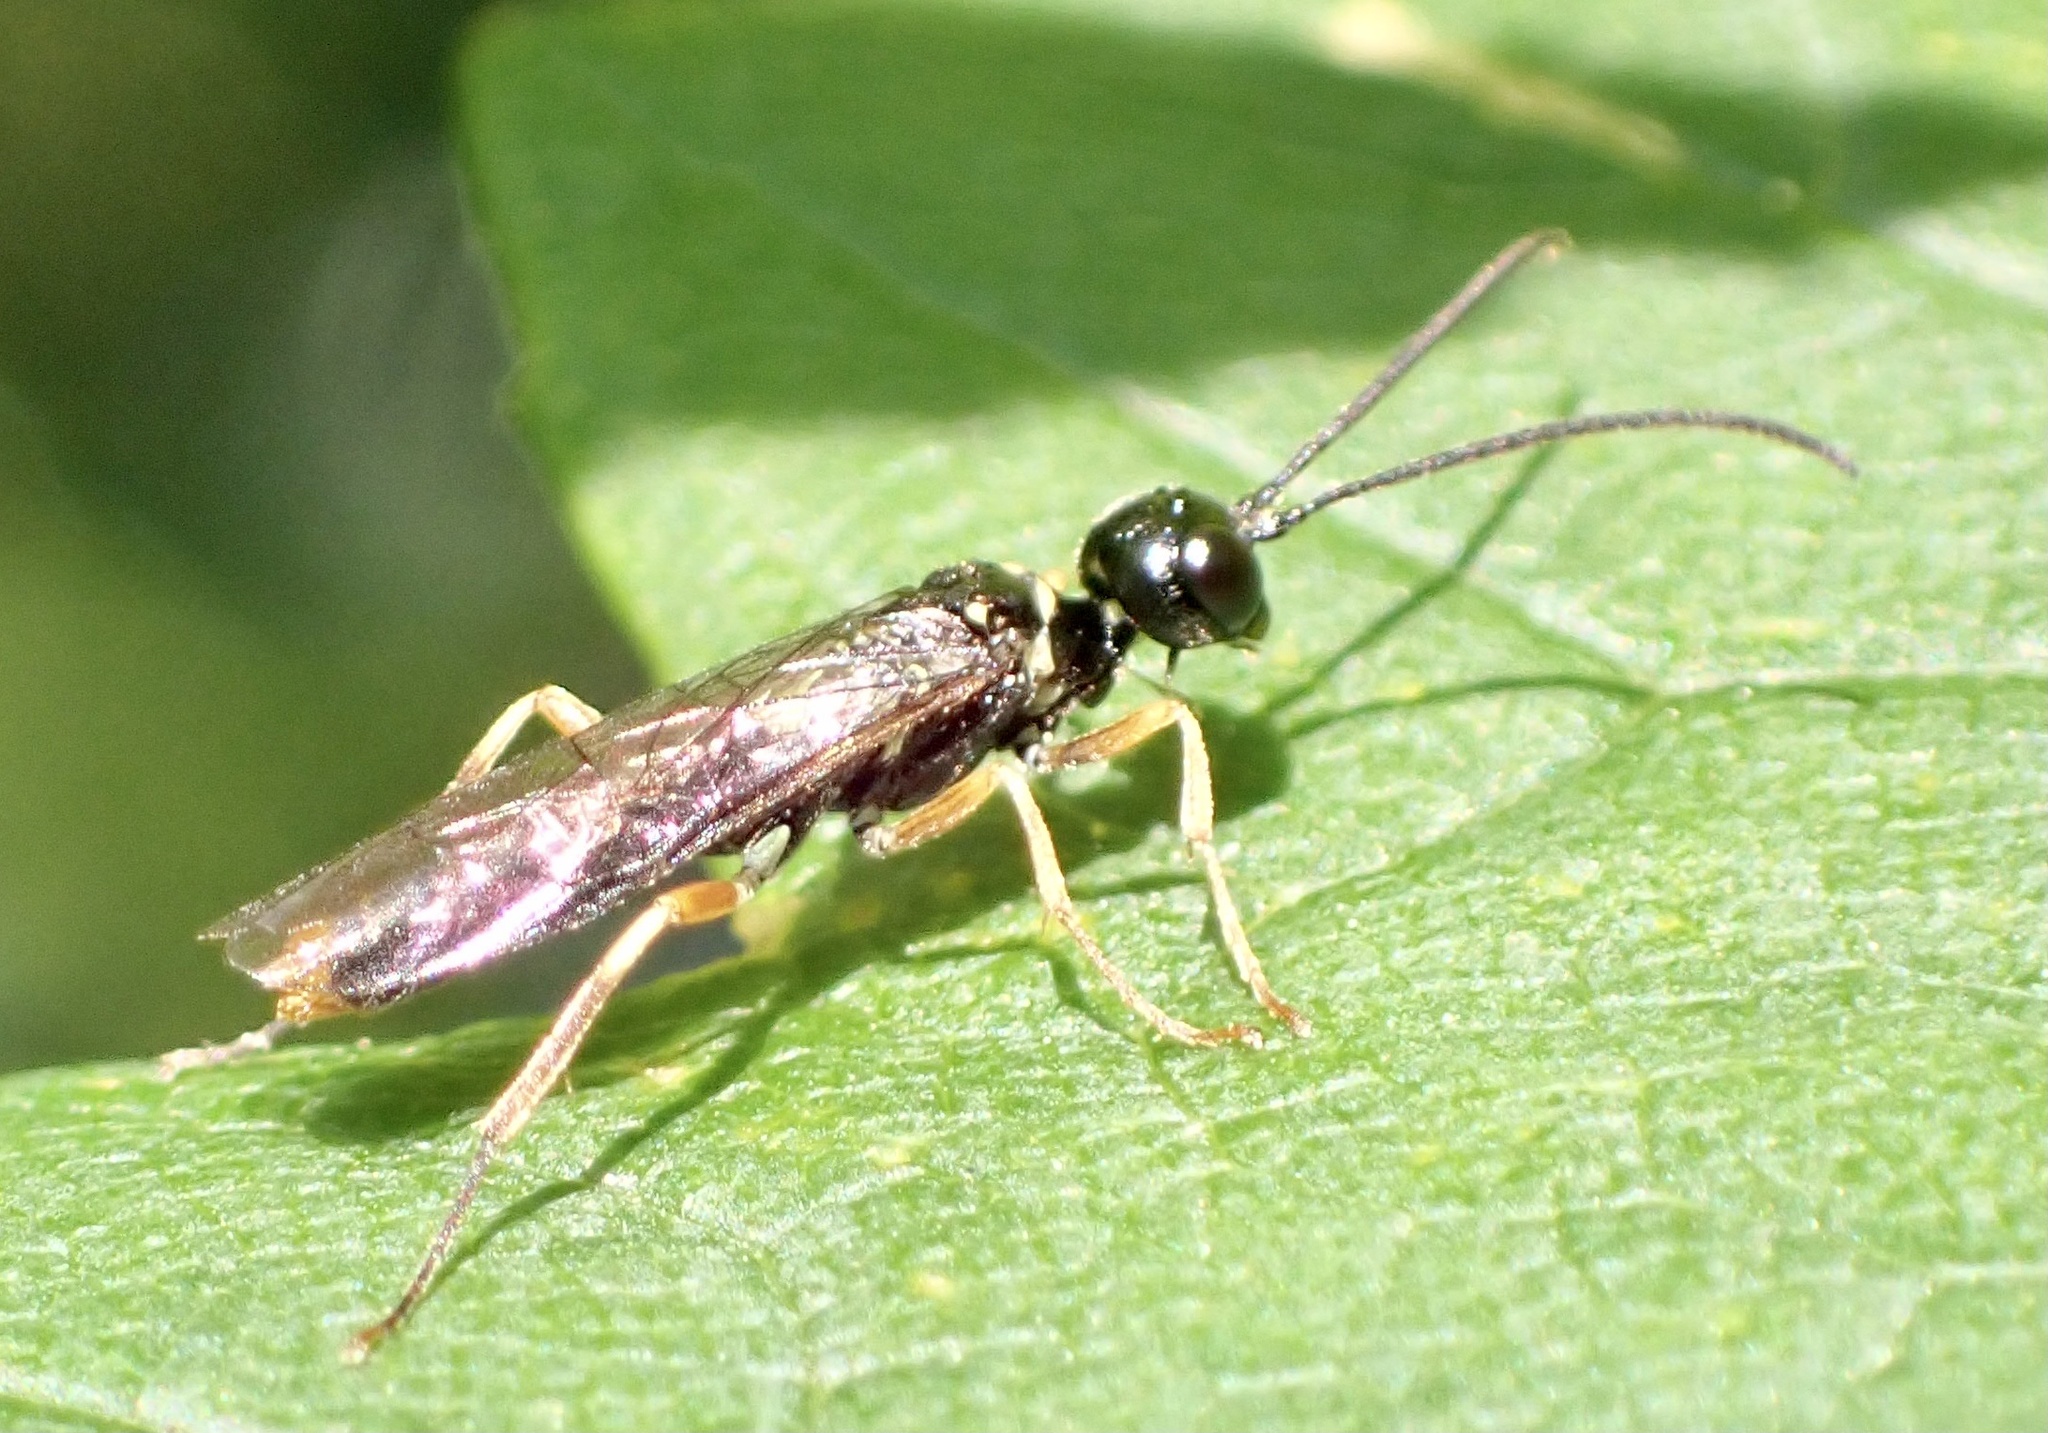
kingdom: Animalia
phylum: Arthropoda
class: Insecta
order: Hymenoptera
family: Cephidae
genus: Janus
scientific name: Janus luteipes
